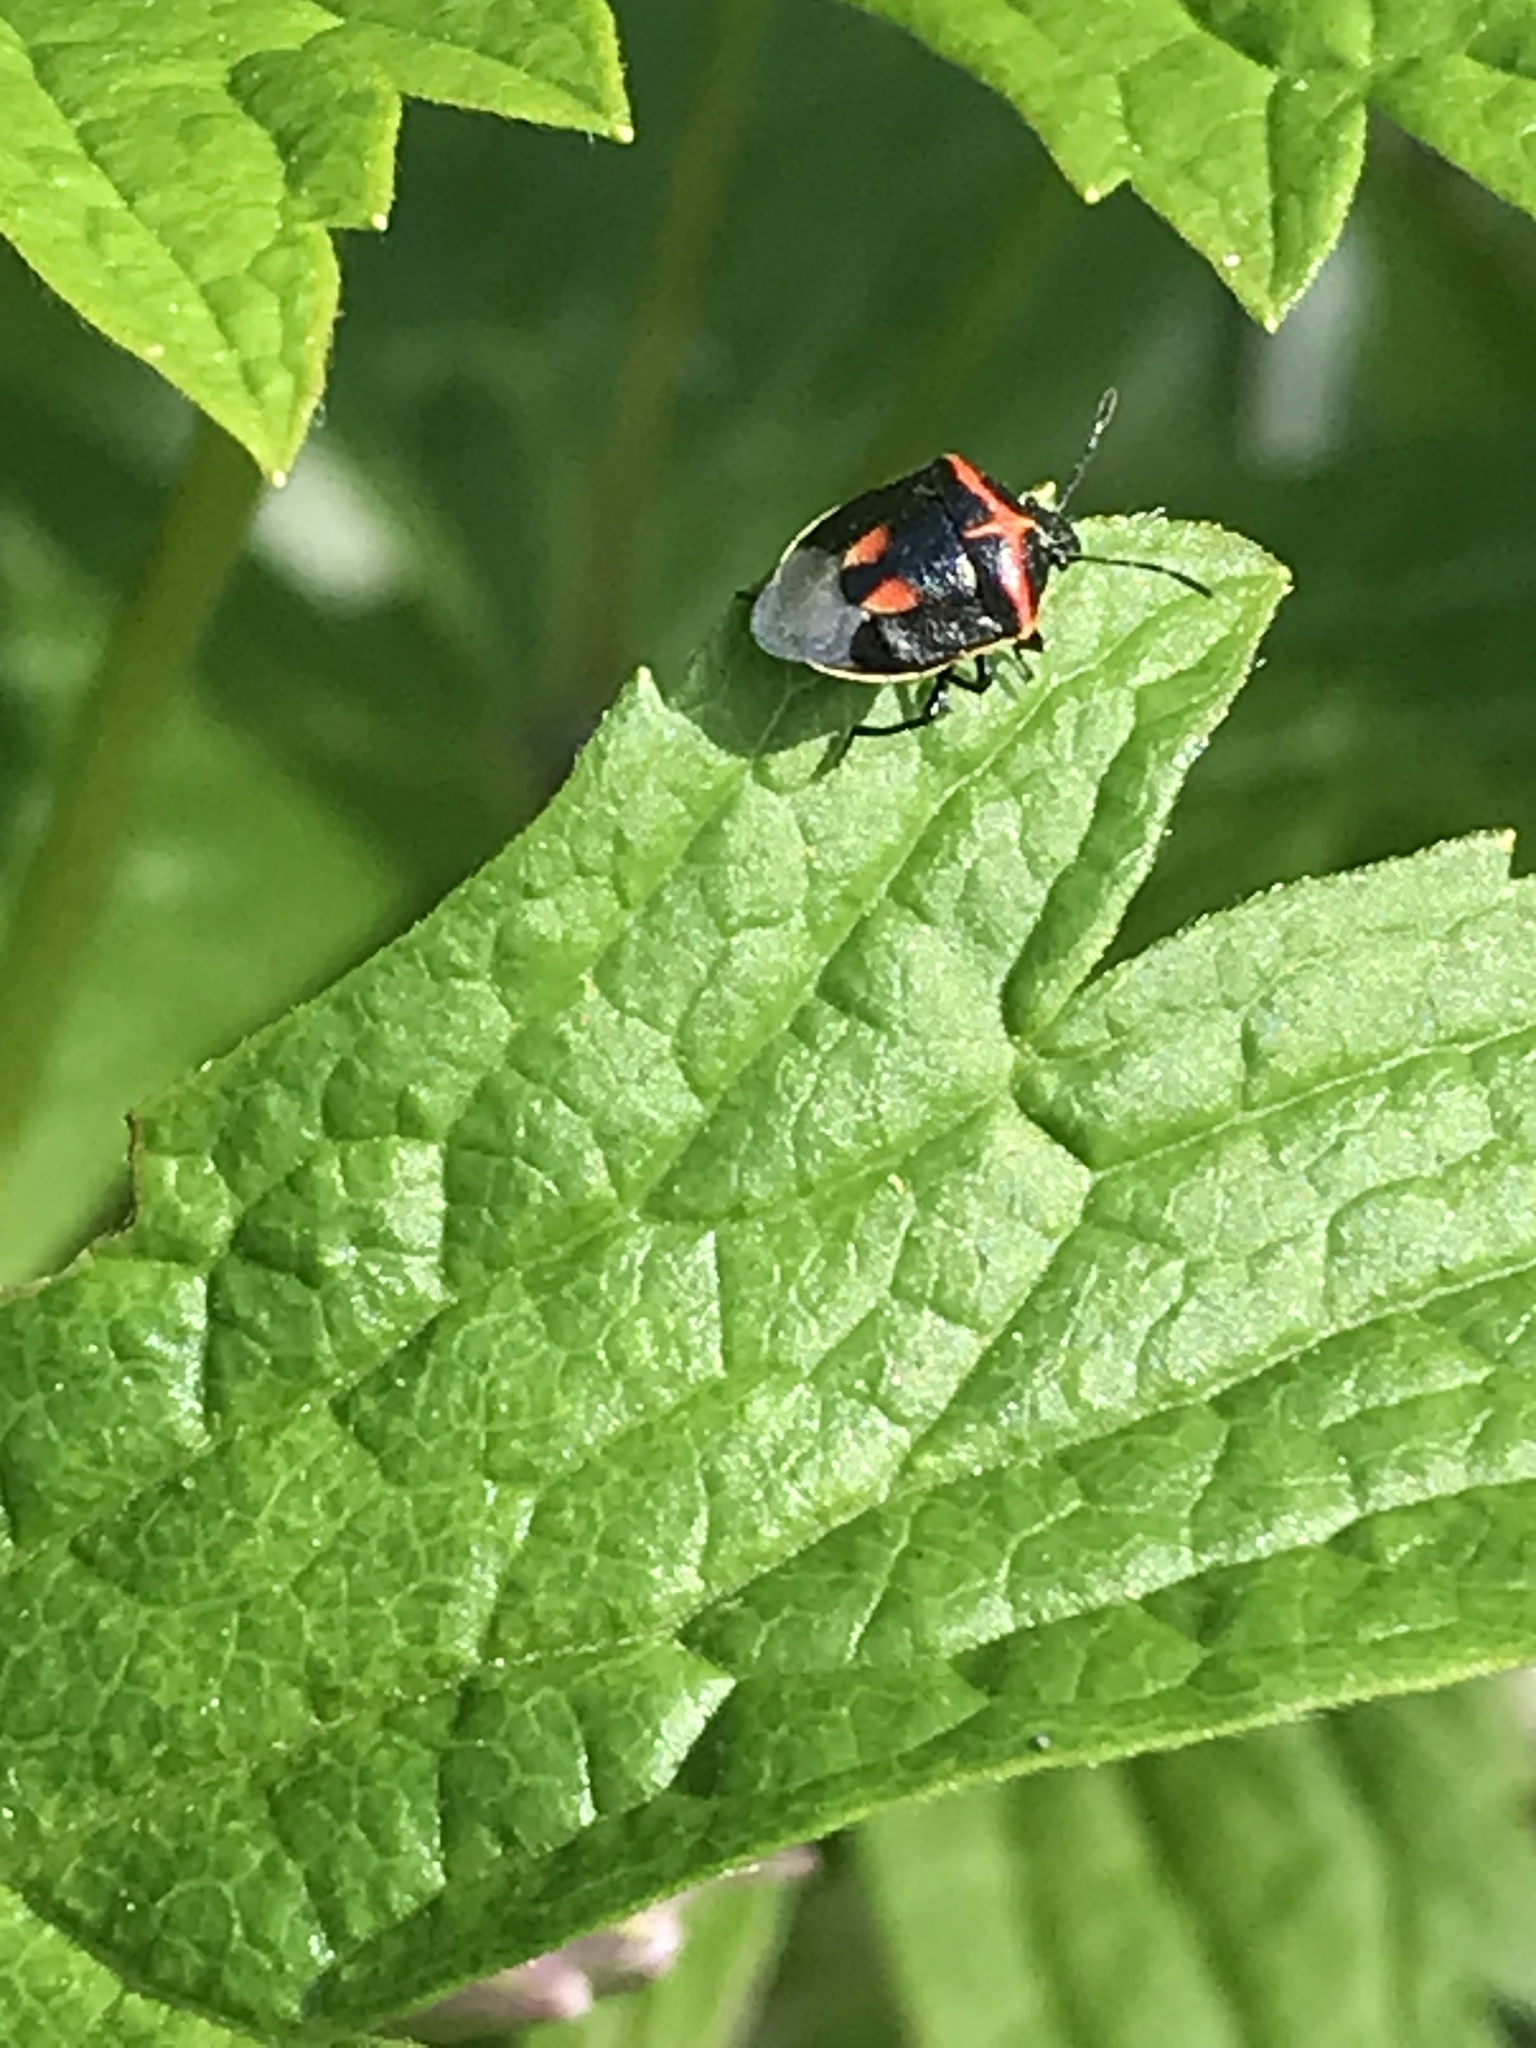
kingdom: Animalia
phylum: Arthropoda
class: Insecta
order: Hemiptera
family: Pentatomidae
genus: Cosmopepla
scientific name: Cosmopepla lintneriana
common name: Twice-stabbed stink bug
